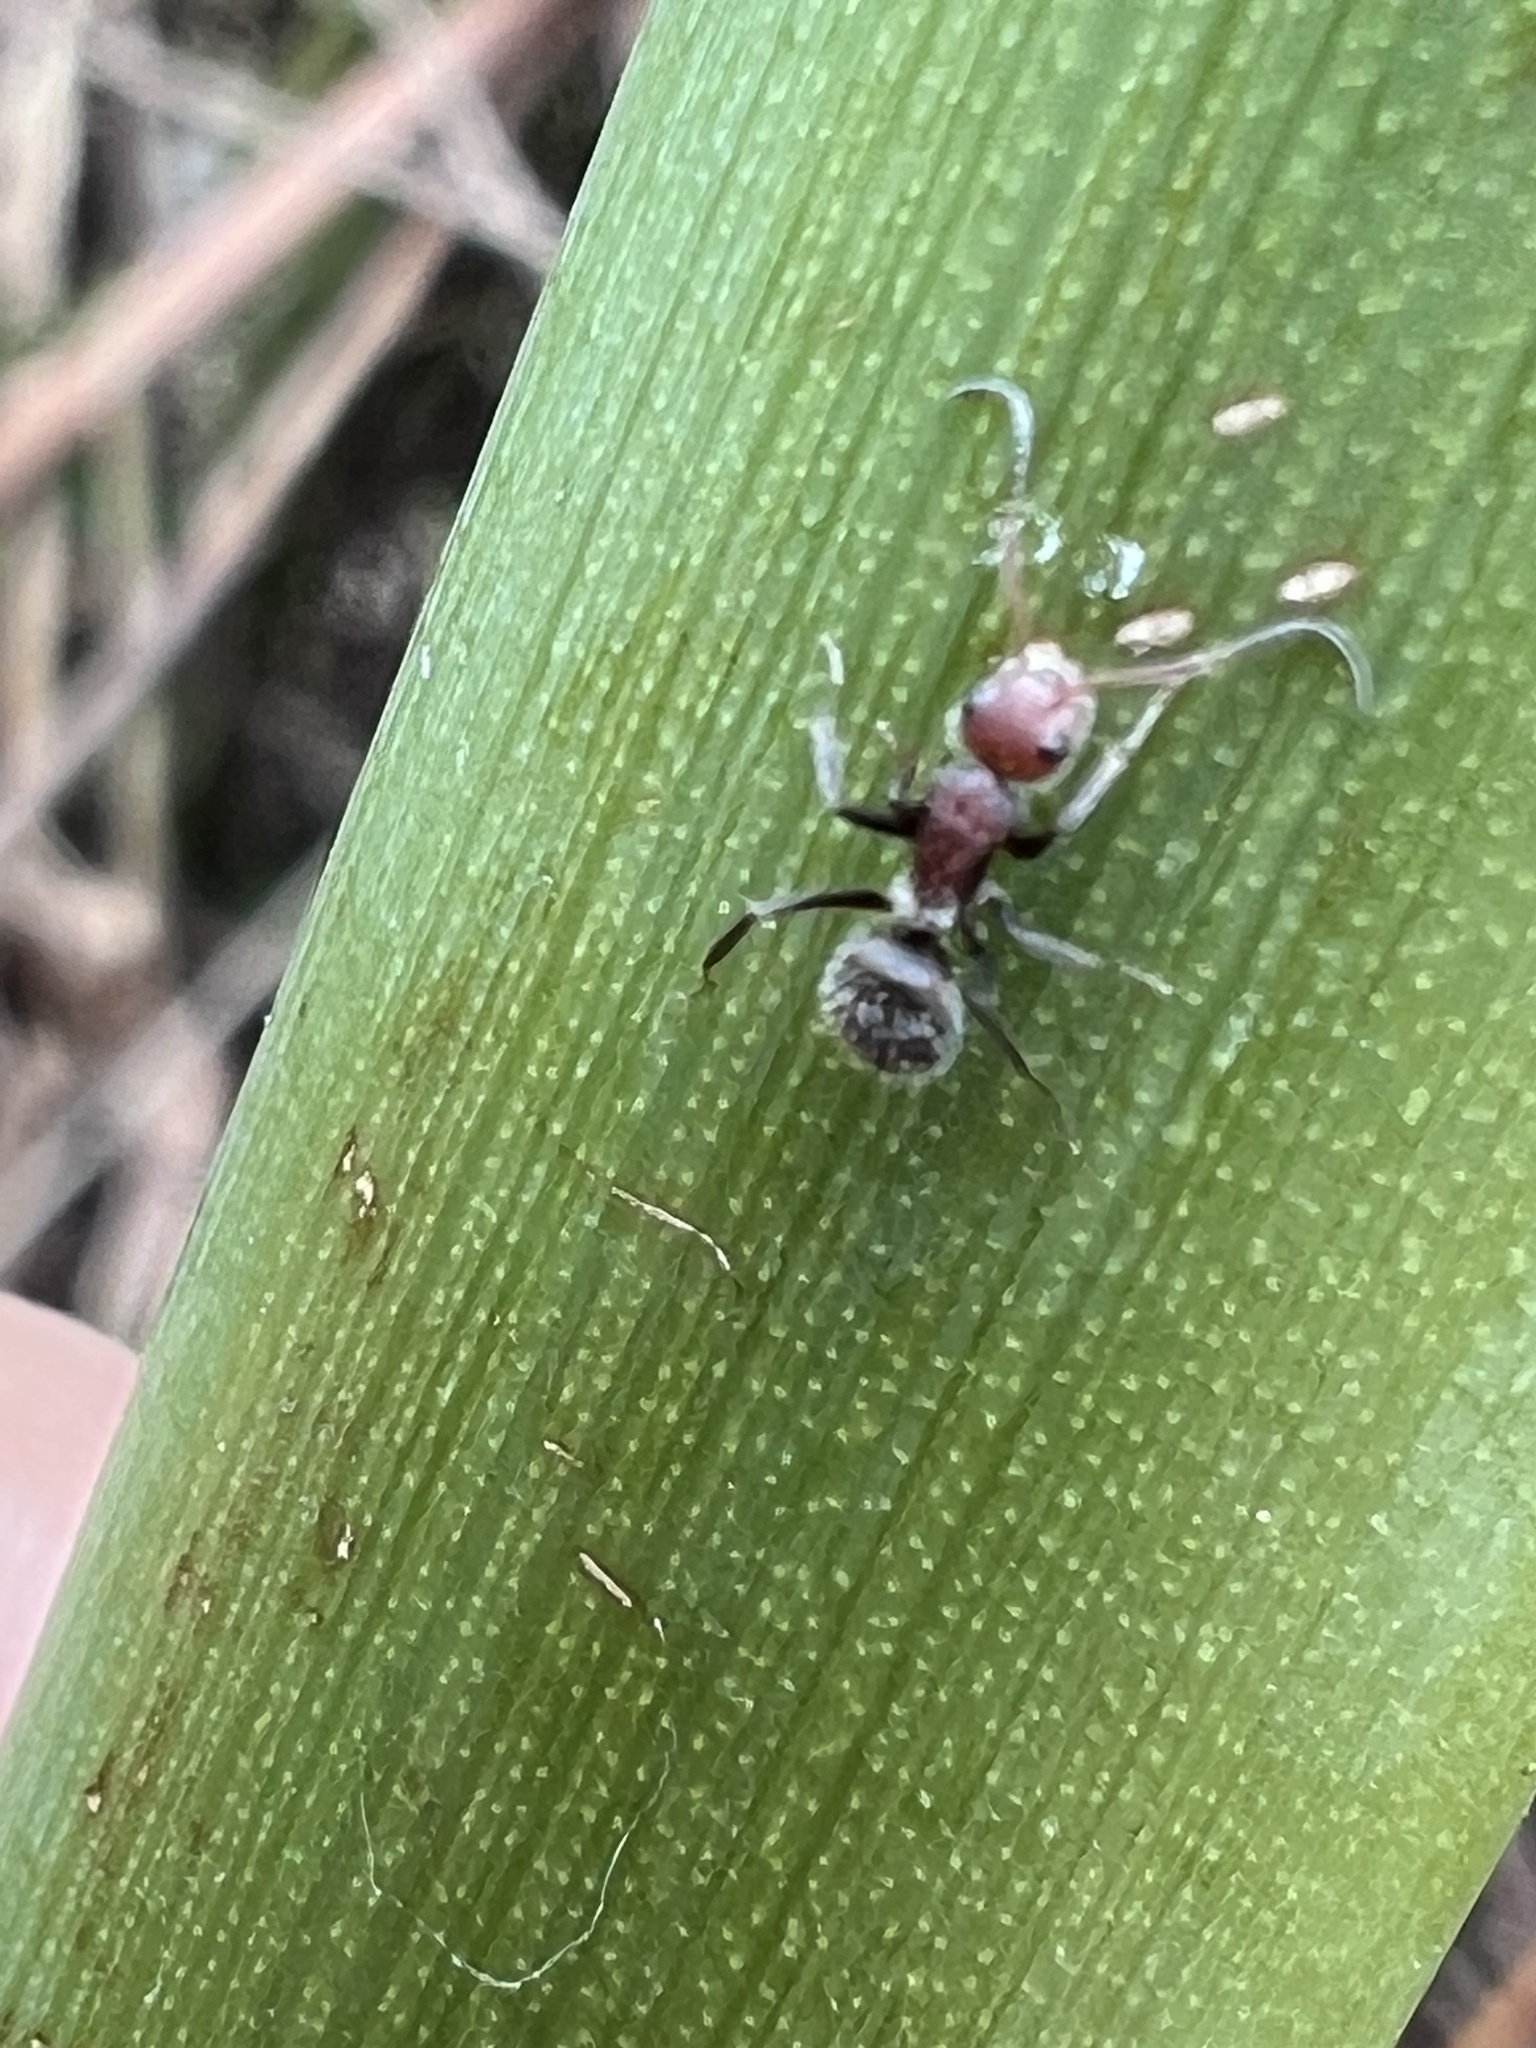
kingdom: Animalia
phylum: Arthropoda
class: Insecta
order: Hymenoptera
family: Formicidae
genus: Camponotus
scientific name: Camponotus planatus
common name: Compact carpenter ant
